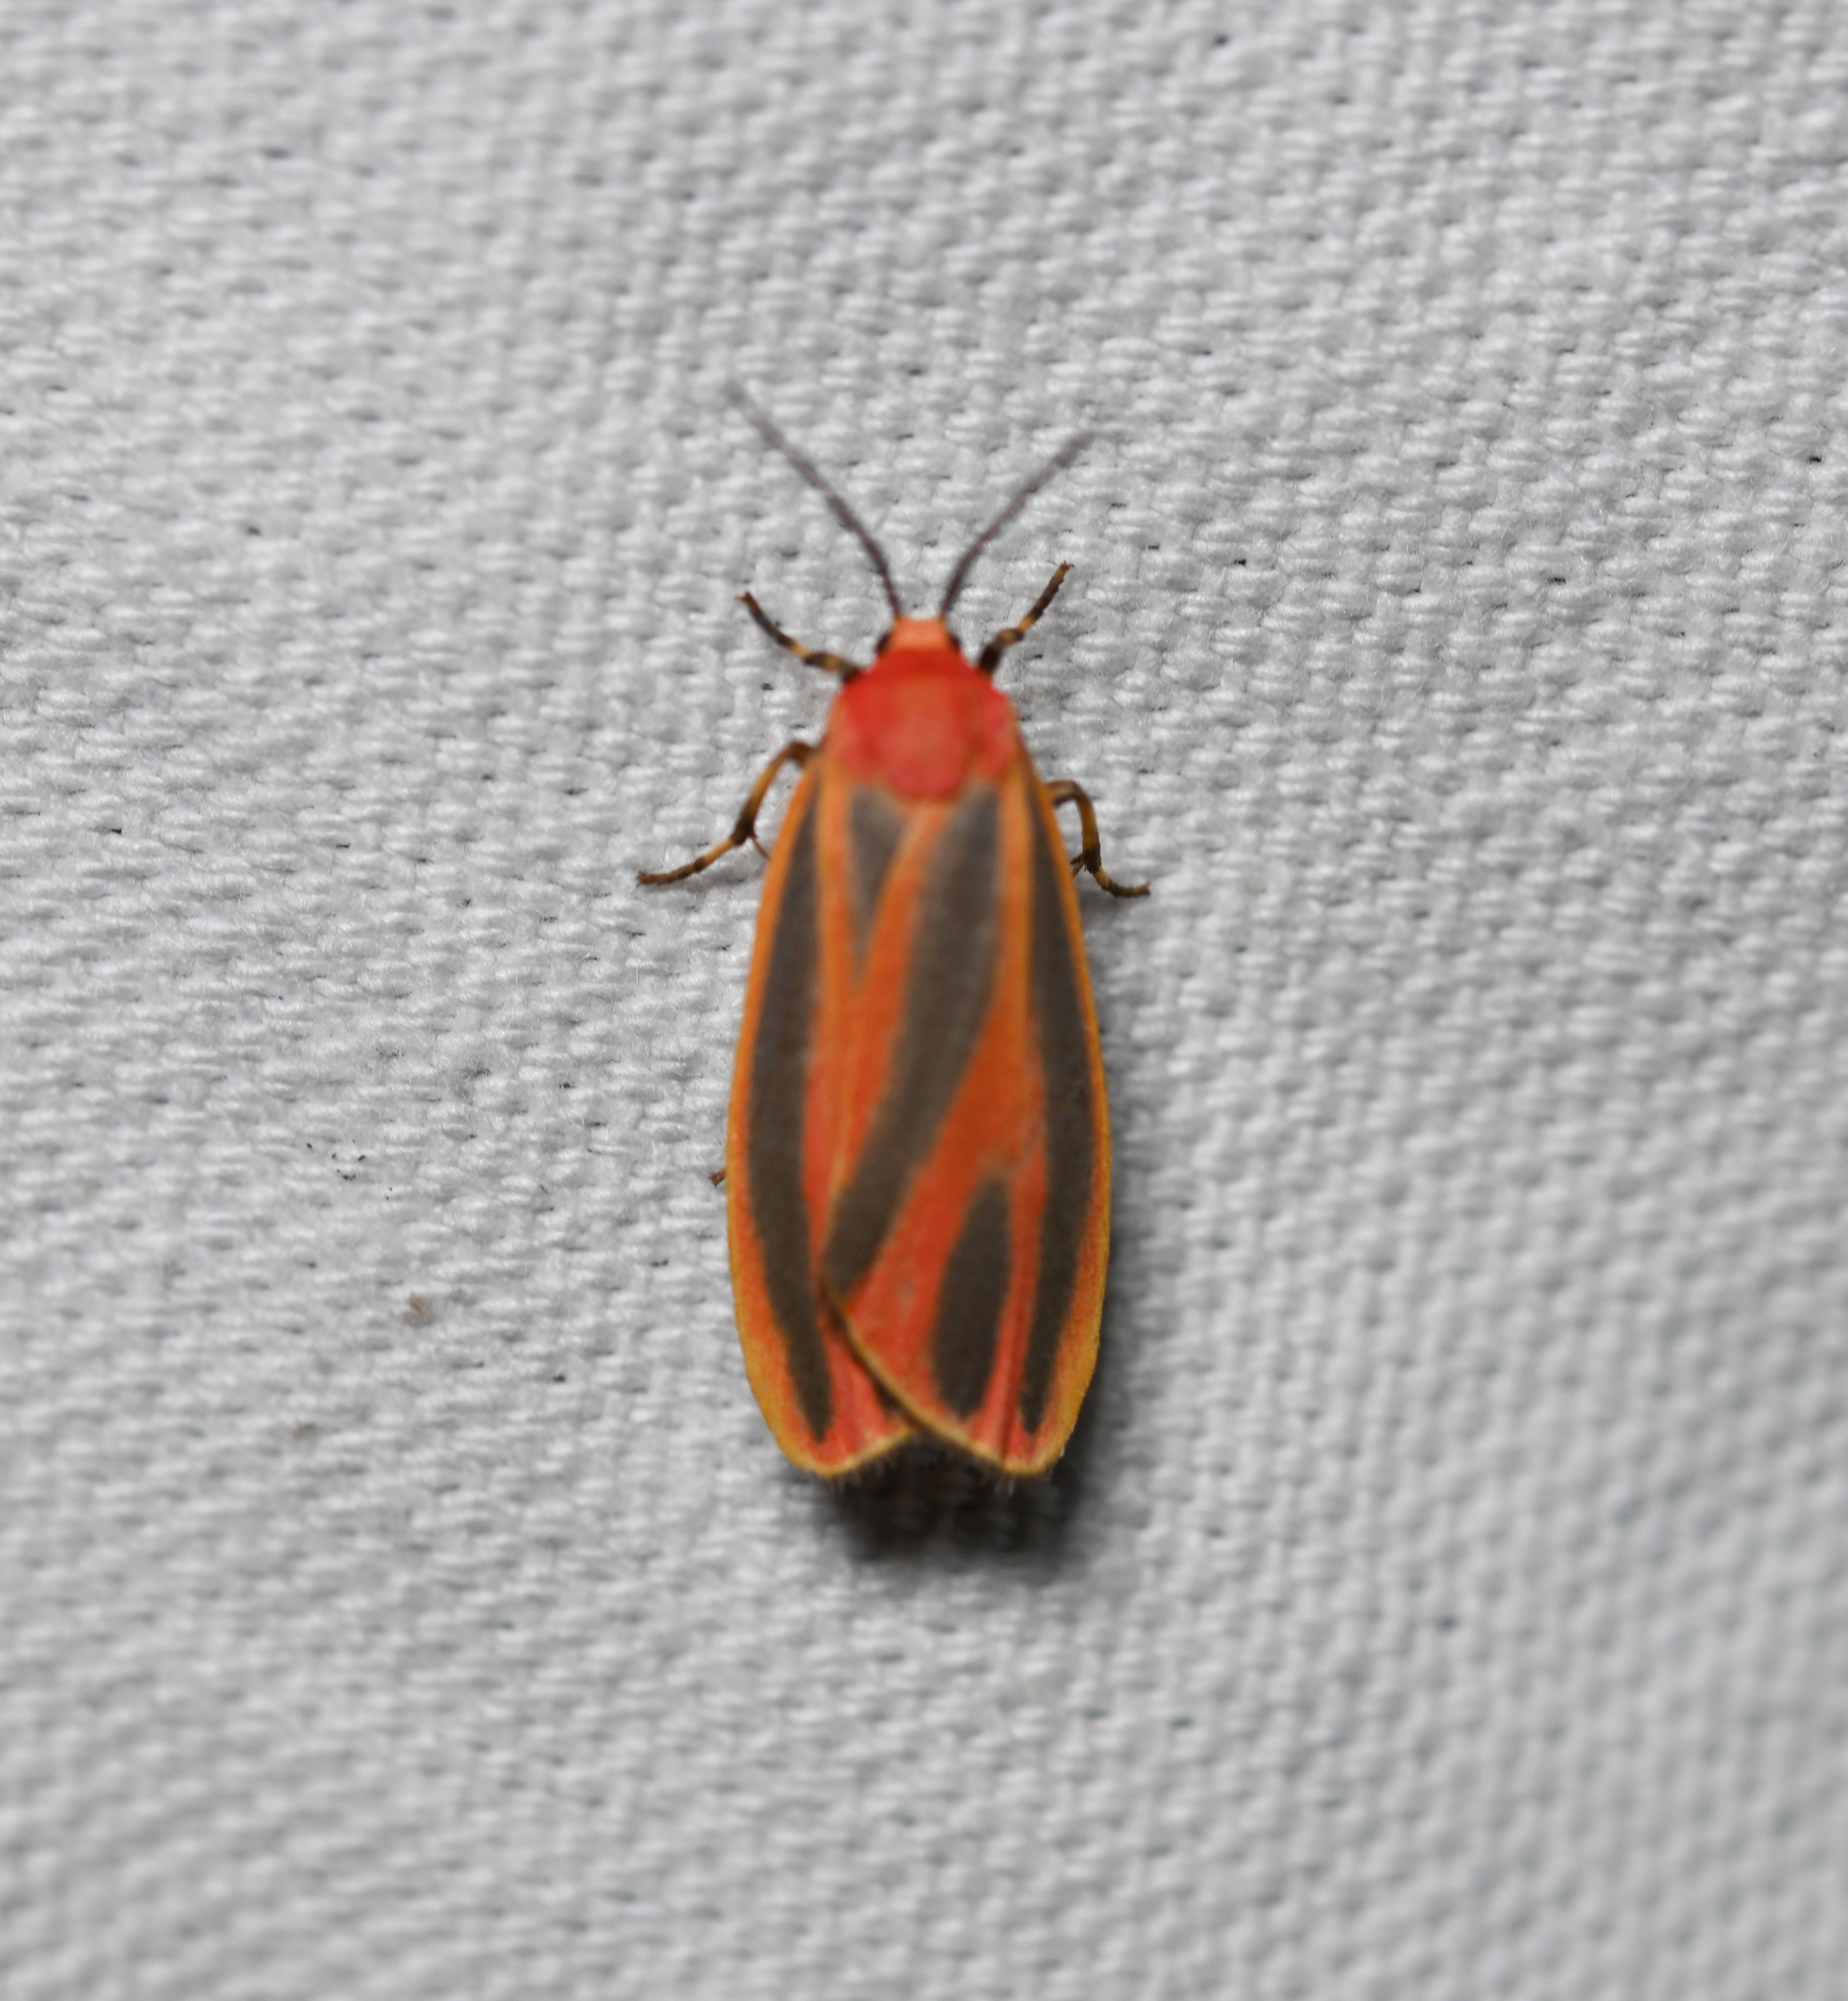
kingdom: Animalia
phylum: Arthropoda
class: Insecta
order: Lepidoptera
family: Erebidae
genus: Hypoprepia
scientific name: Hypoprepia miniata
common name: Scarlet-winged lichen moth
